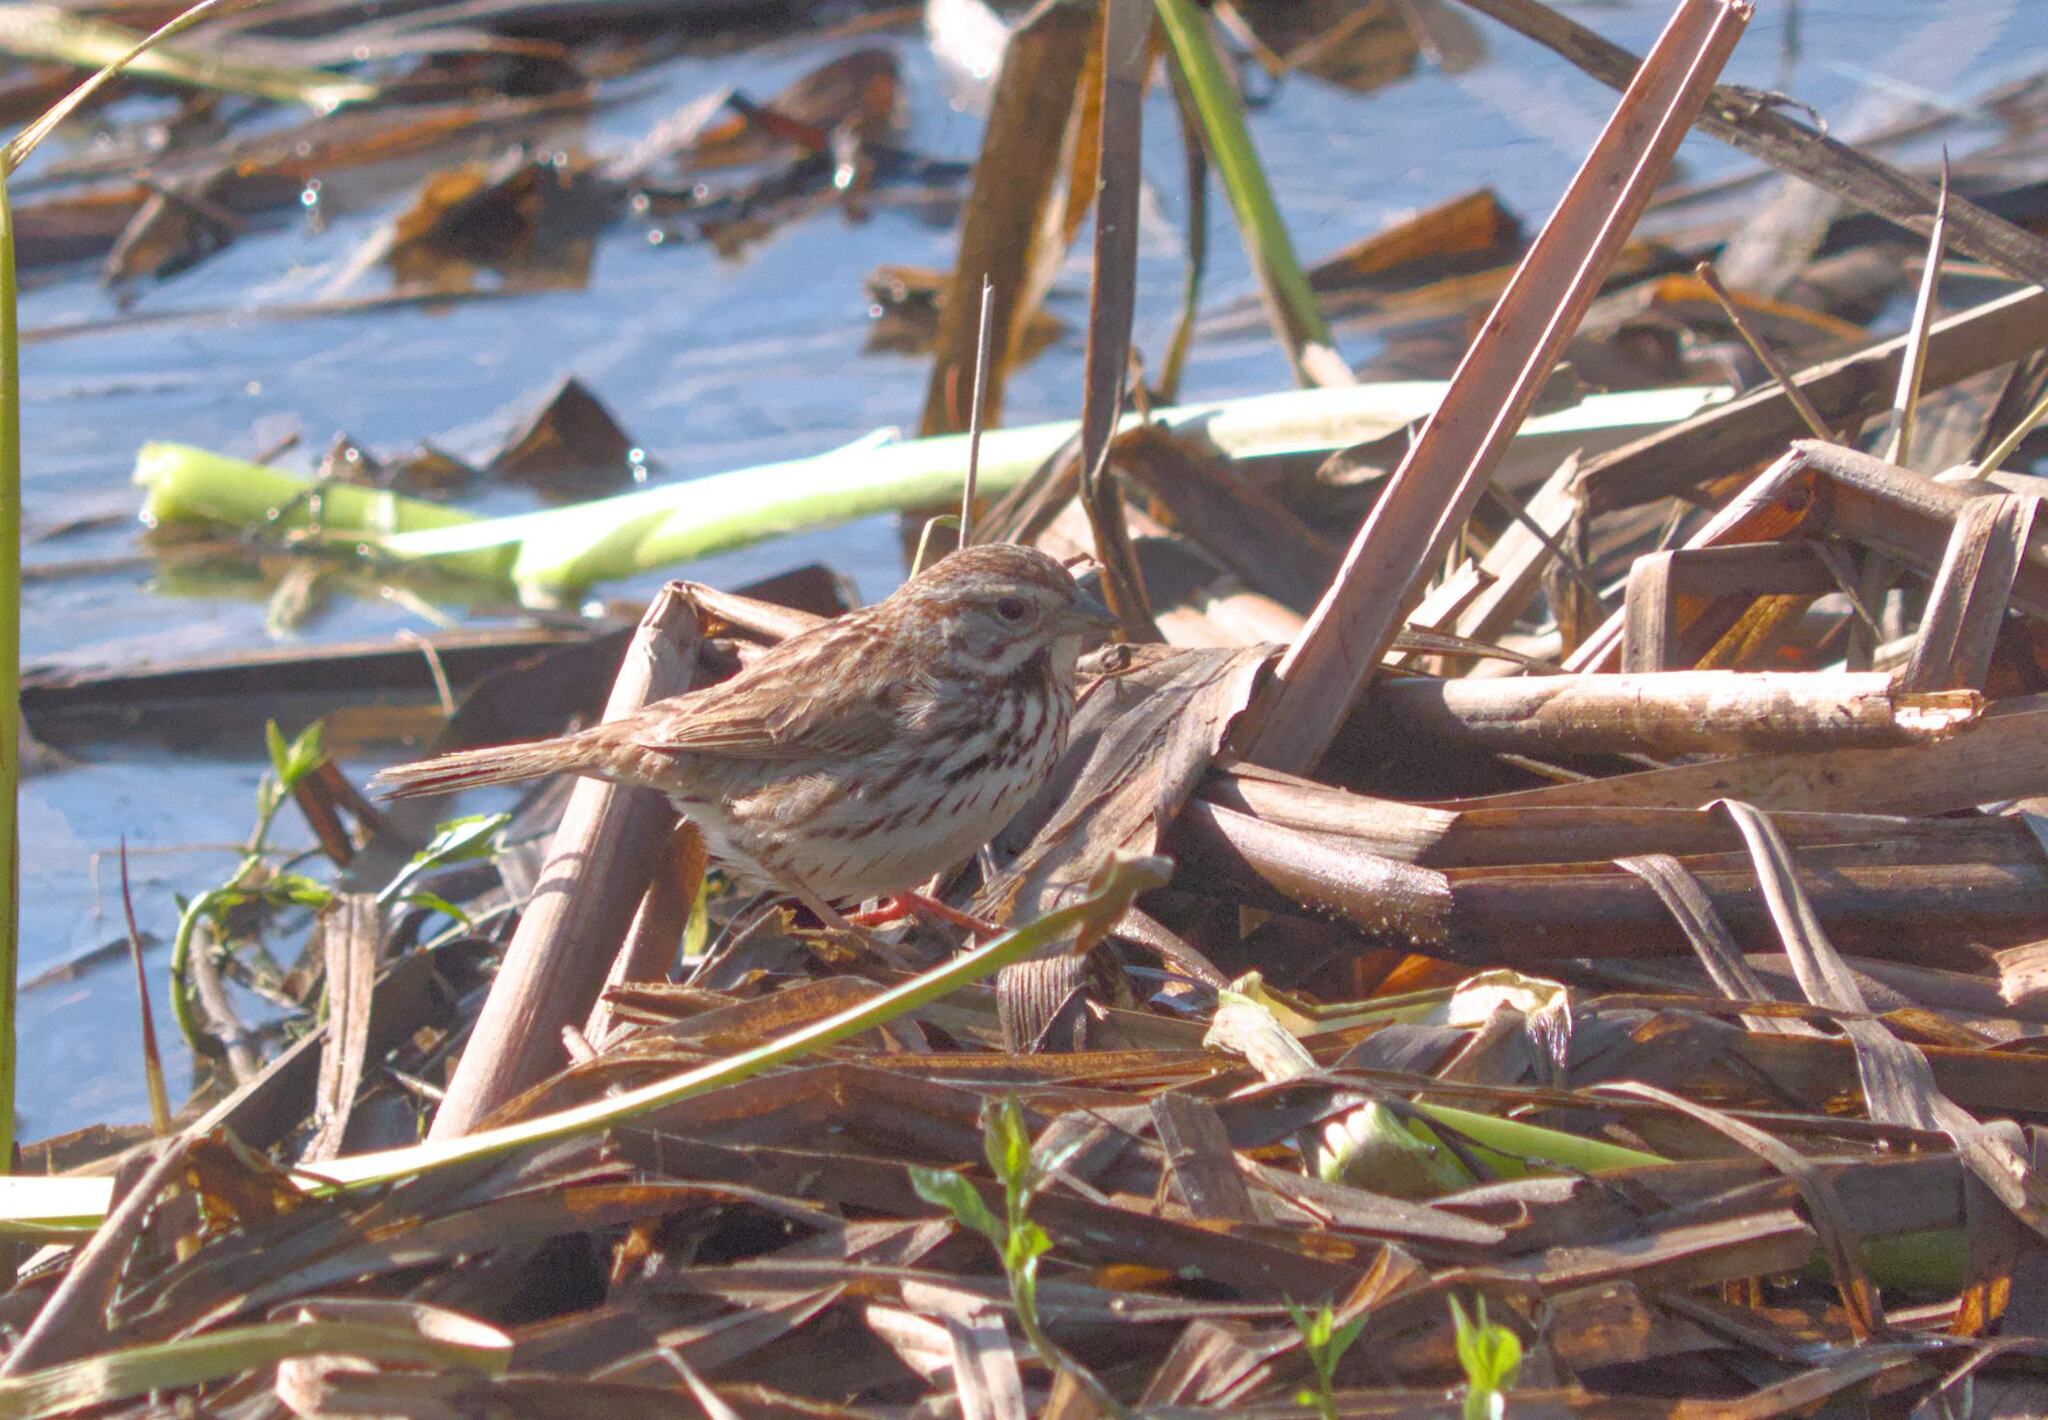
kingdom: Animalia
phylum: Chordata
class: Aves
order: Passeriformes
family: Passerellidae
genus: Melospiza
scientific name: Melospiza melodia
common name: Song sparrow
